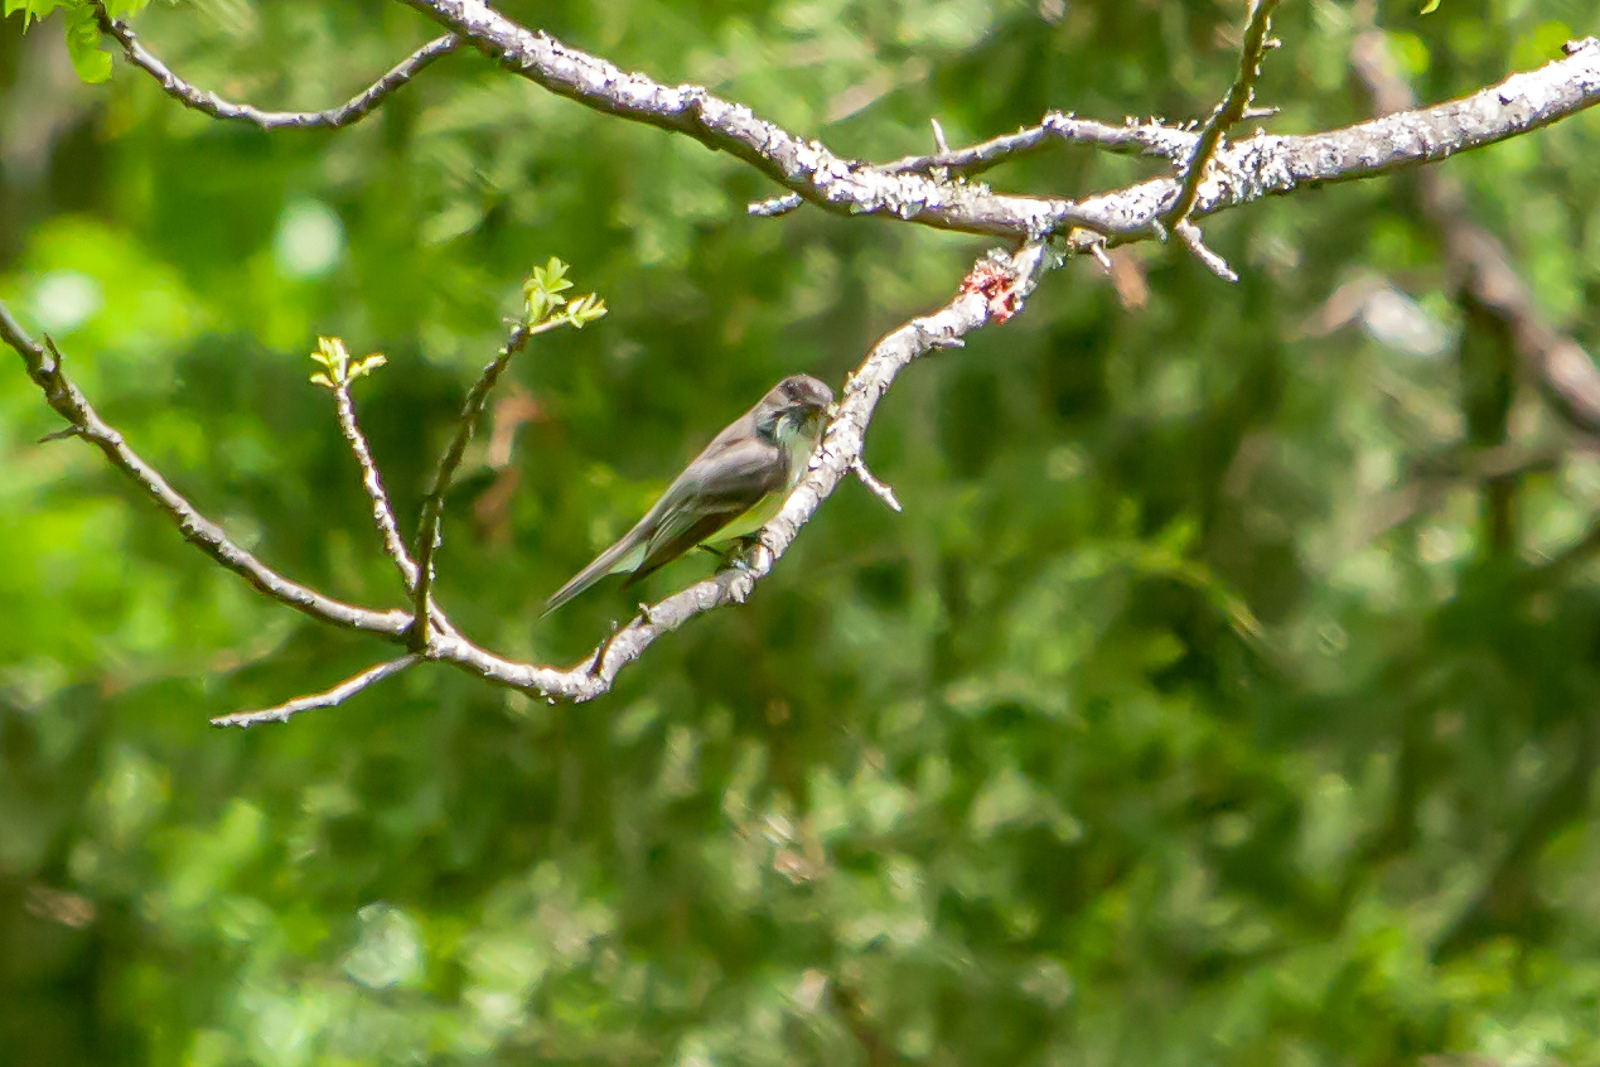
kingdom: Animalia
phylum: Chordata
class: Aves
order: Passeriformes
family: Tyrannidae
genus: Sayornis
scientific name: Sayornis phoebe
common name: Eastern phoebe
